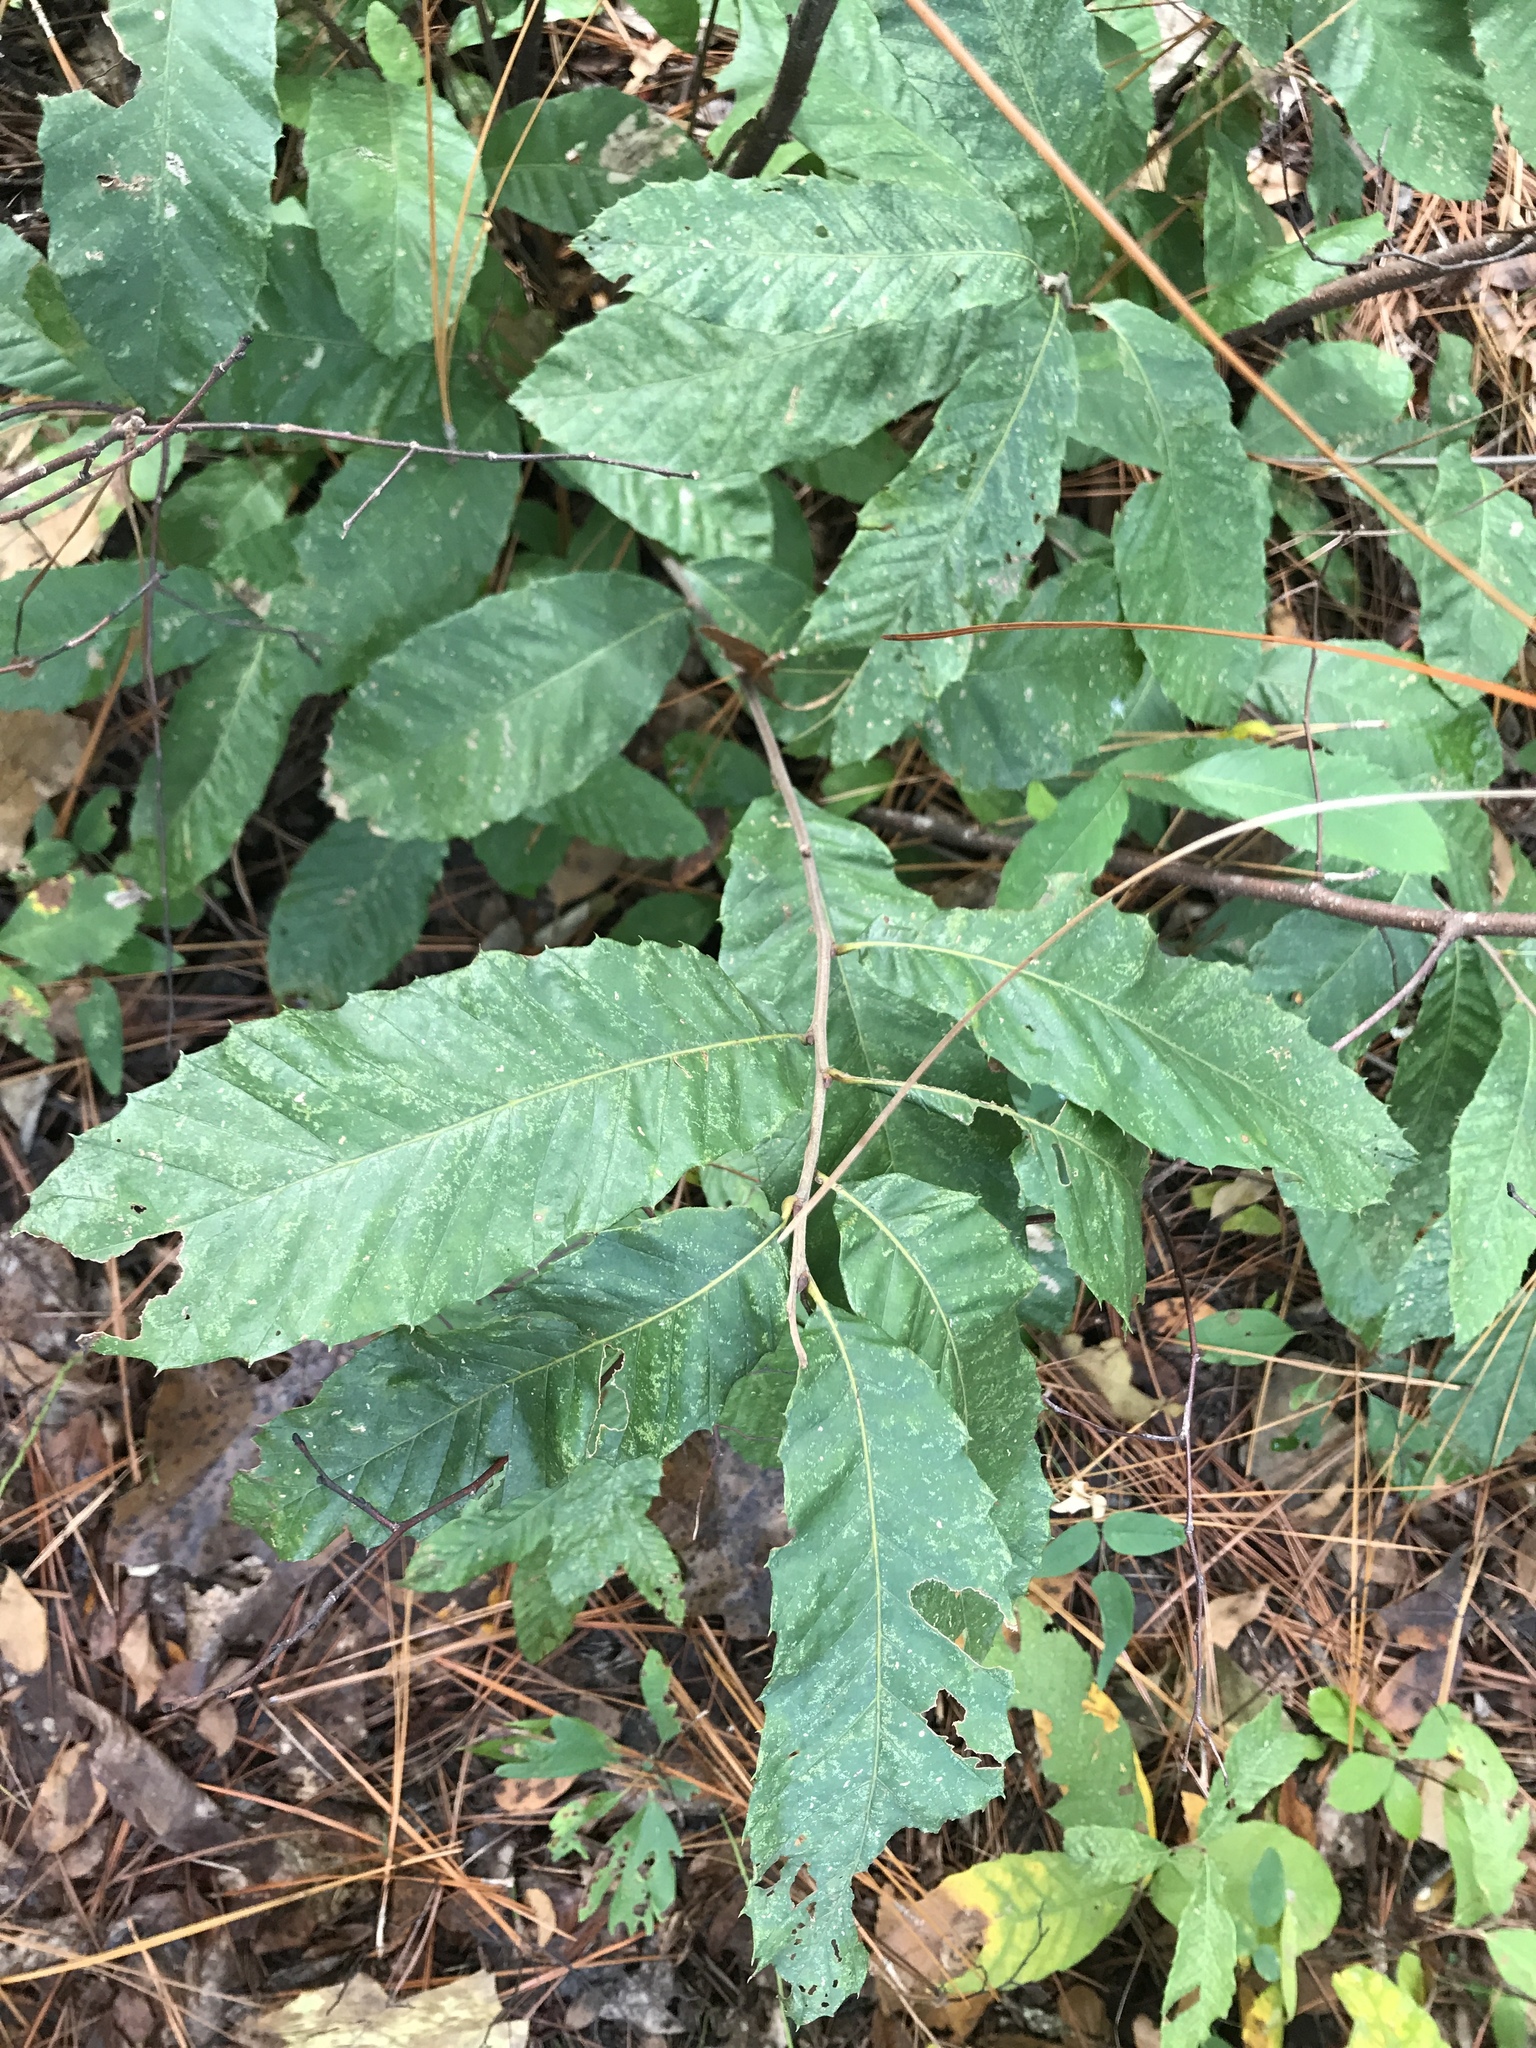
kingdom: Plantae
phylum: Tracheophyta
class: Magnoliopsida
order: Fagales
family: Fagaceae
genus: Castanea
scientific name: Castanea pumila
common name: Chinkapin
